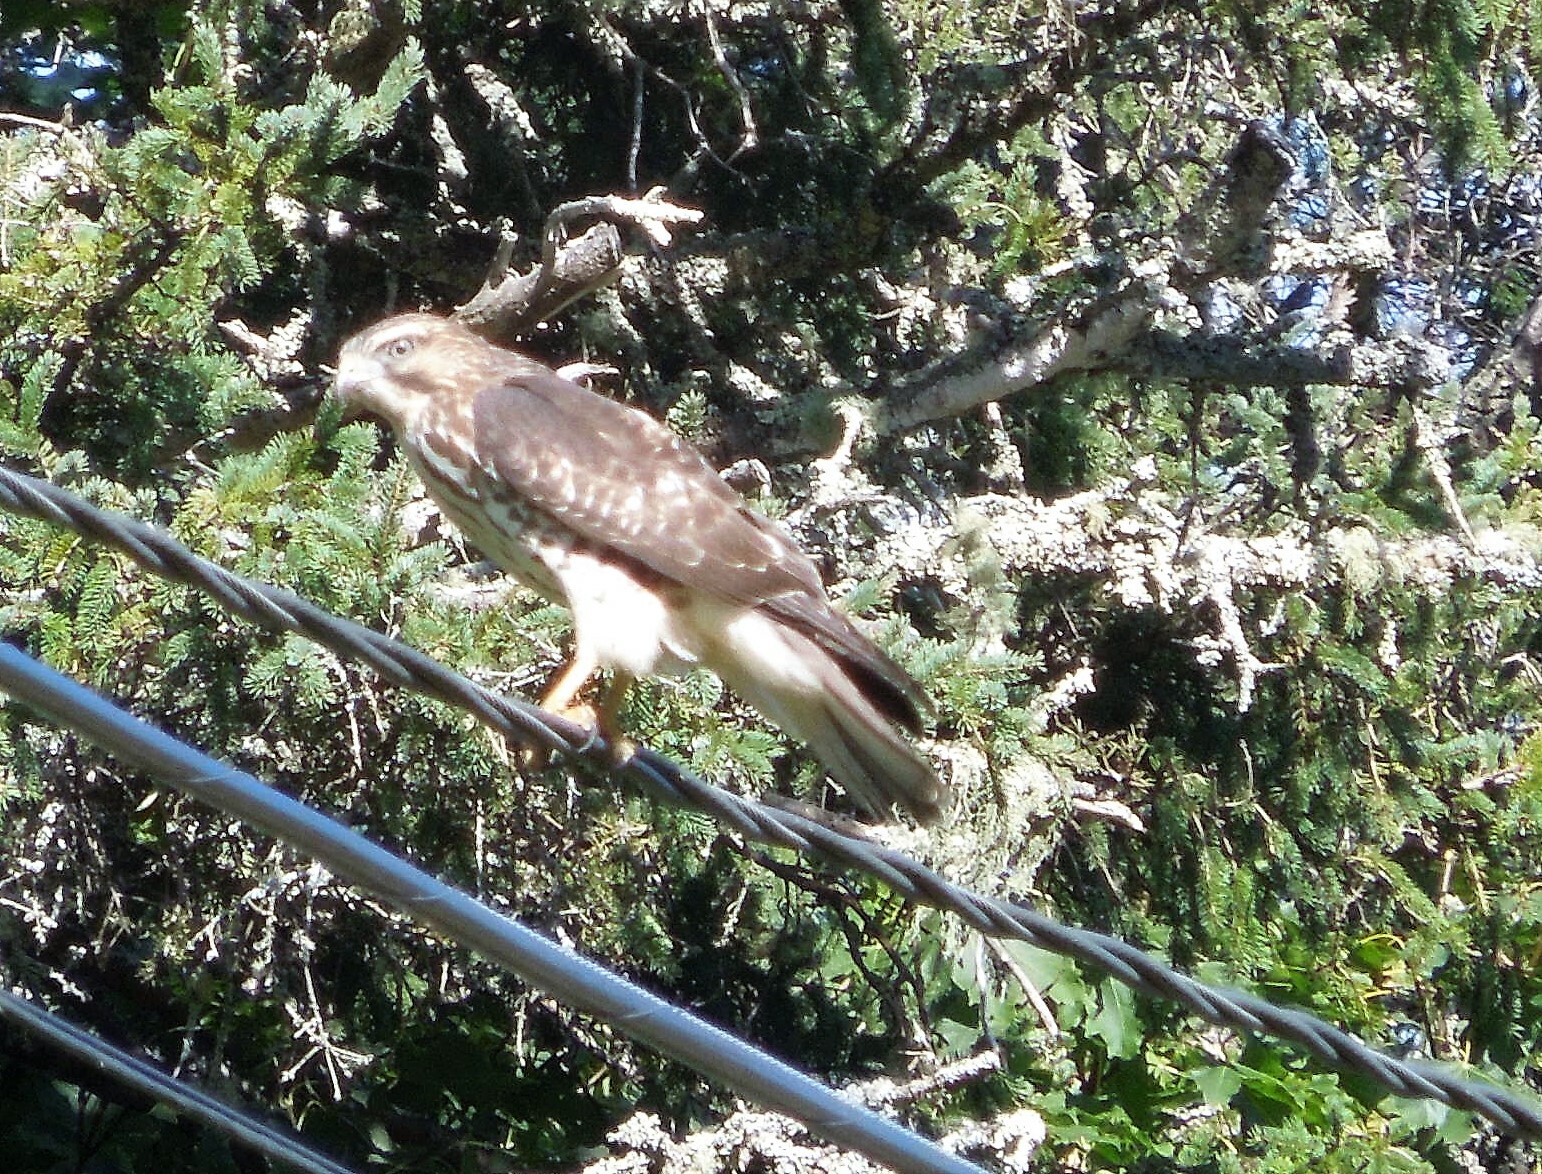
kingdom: Animalia
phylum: Chordata
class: Aves
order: Accipitriformes
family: Accipitridae
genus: Buteo
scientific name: Buteo platypterus
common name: Broad-winged hawk
